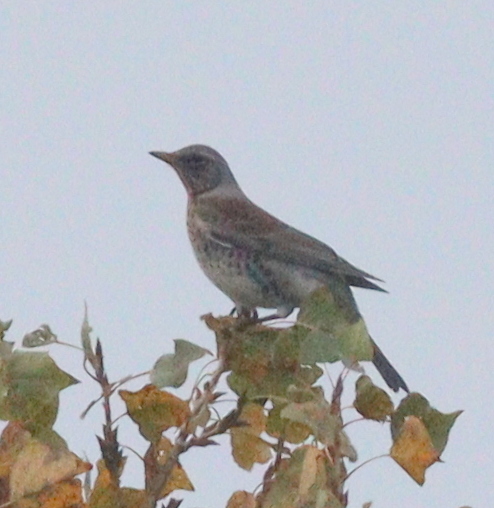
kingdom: Animalia
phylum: Chordata
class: Aves
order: Passeriformes
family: Turdidae
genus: Turdus
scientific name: Turdus pilaris
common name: Fieldfare
